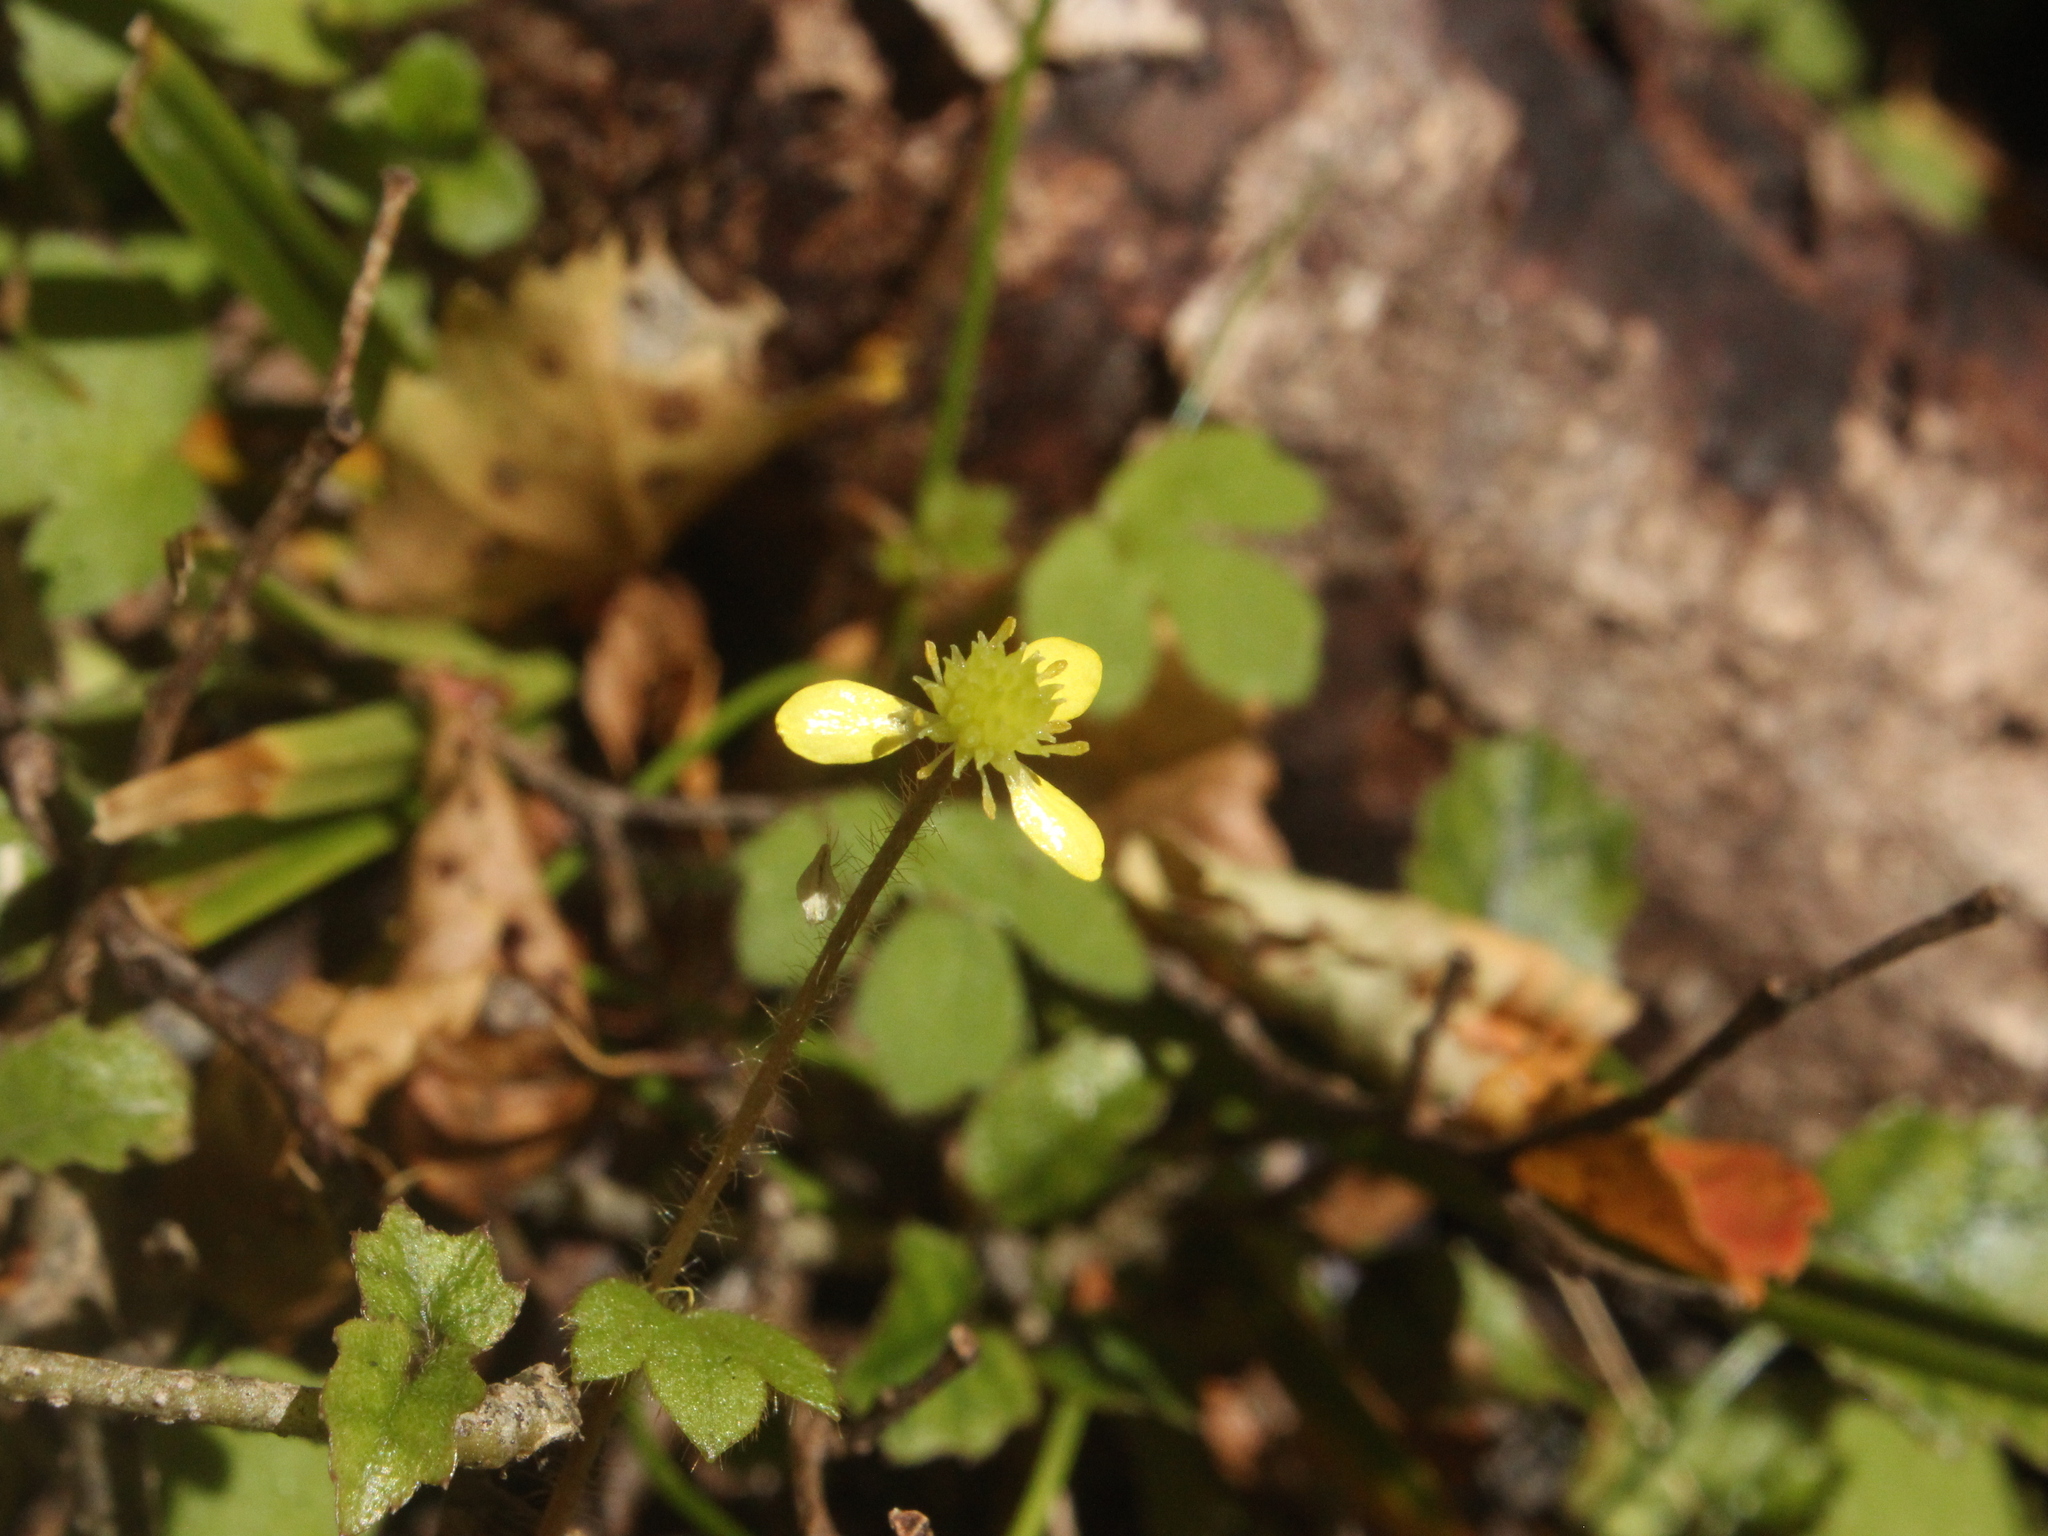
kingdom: Plantae
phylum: Tracheophyta
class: Magnoliopsida
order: Ranunculales
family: Ranunculaceae
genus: Ranunculus
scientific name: Ranunculus reflexus
